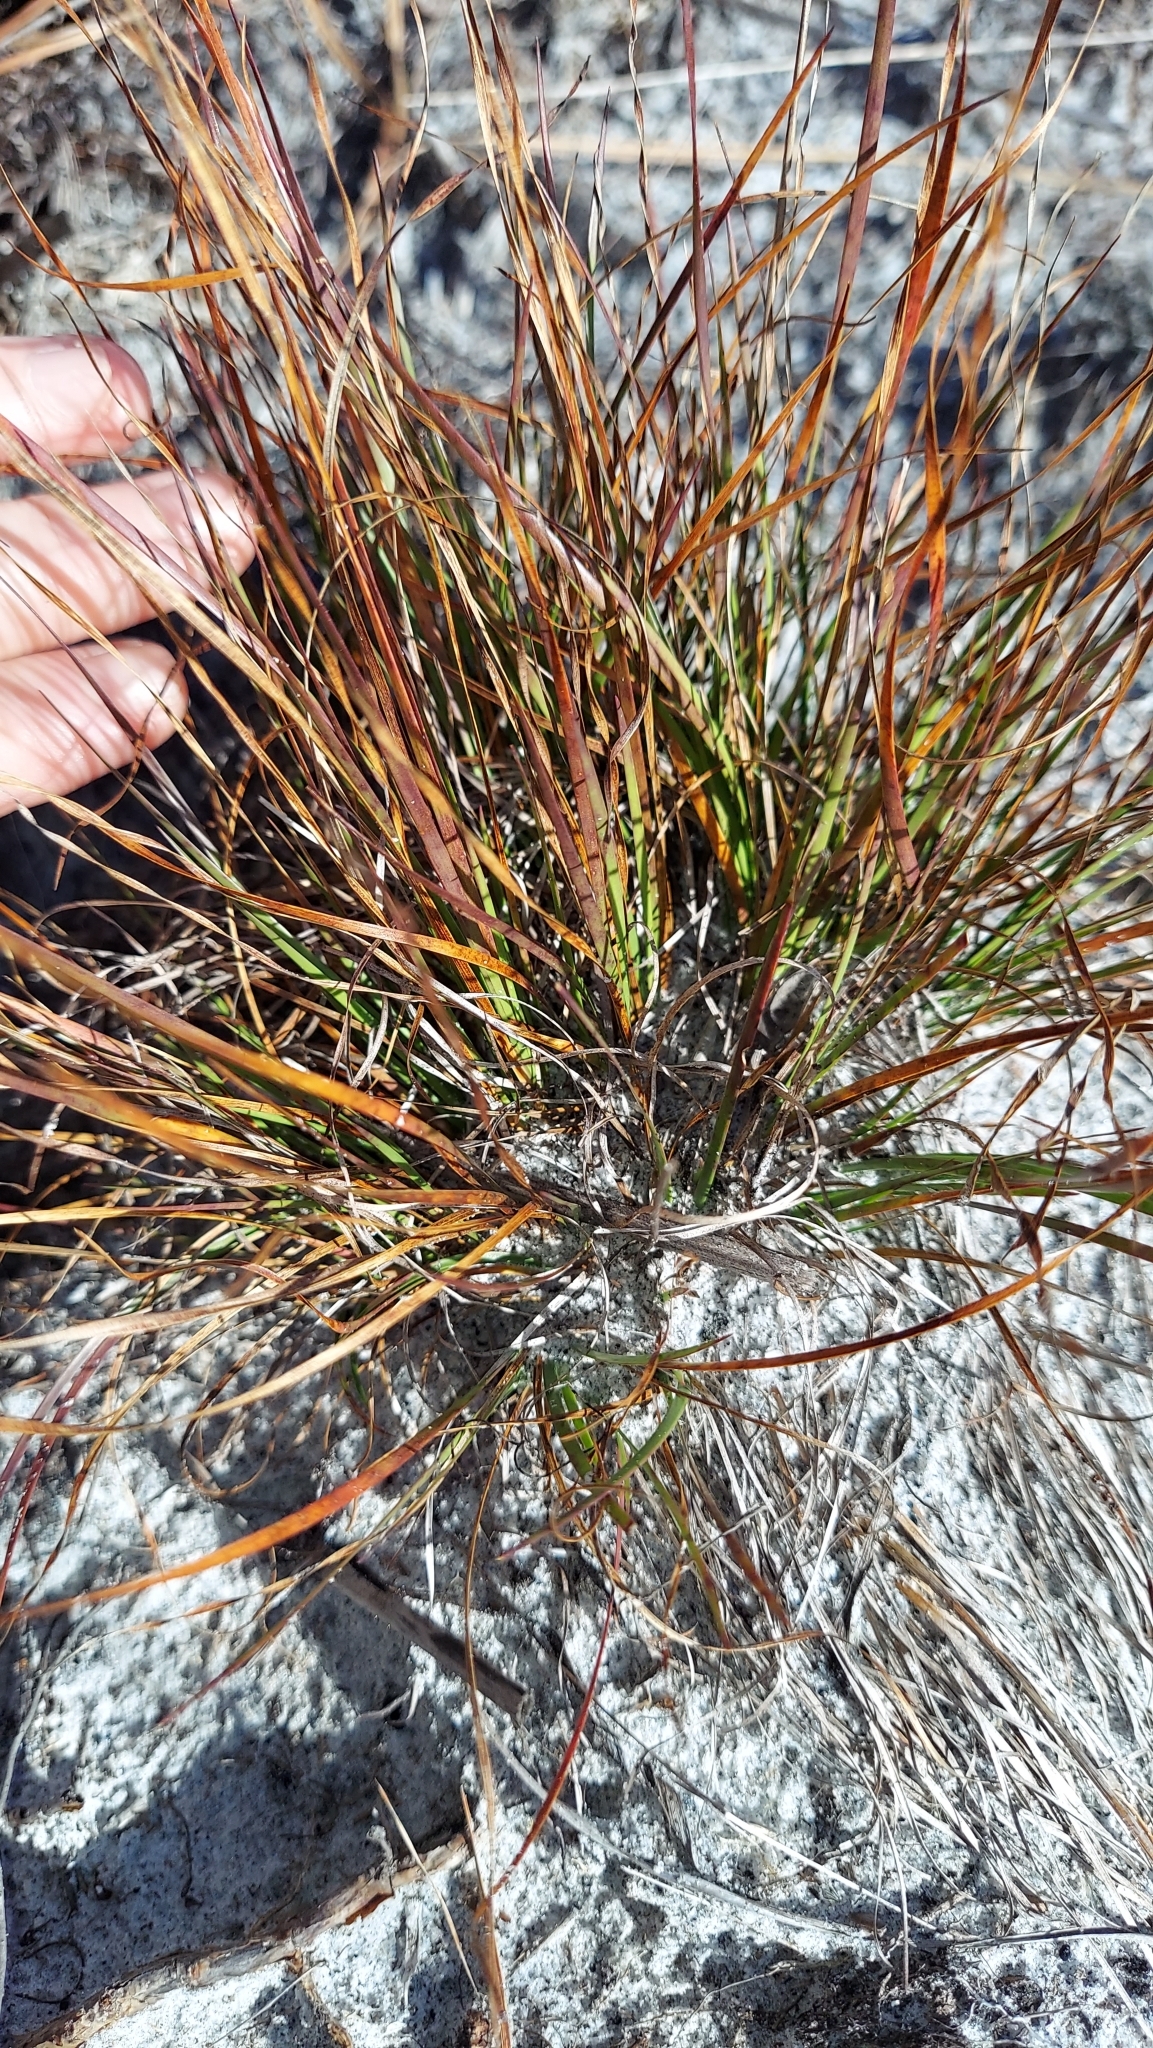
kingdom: Plantae
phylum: Tracheophyta
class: Liliopsida
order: Poales
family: Xyridaceae
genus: Xyris
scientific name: Xyris elliottii
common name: Elliot's yelloweyed grass
